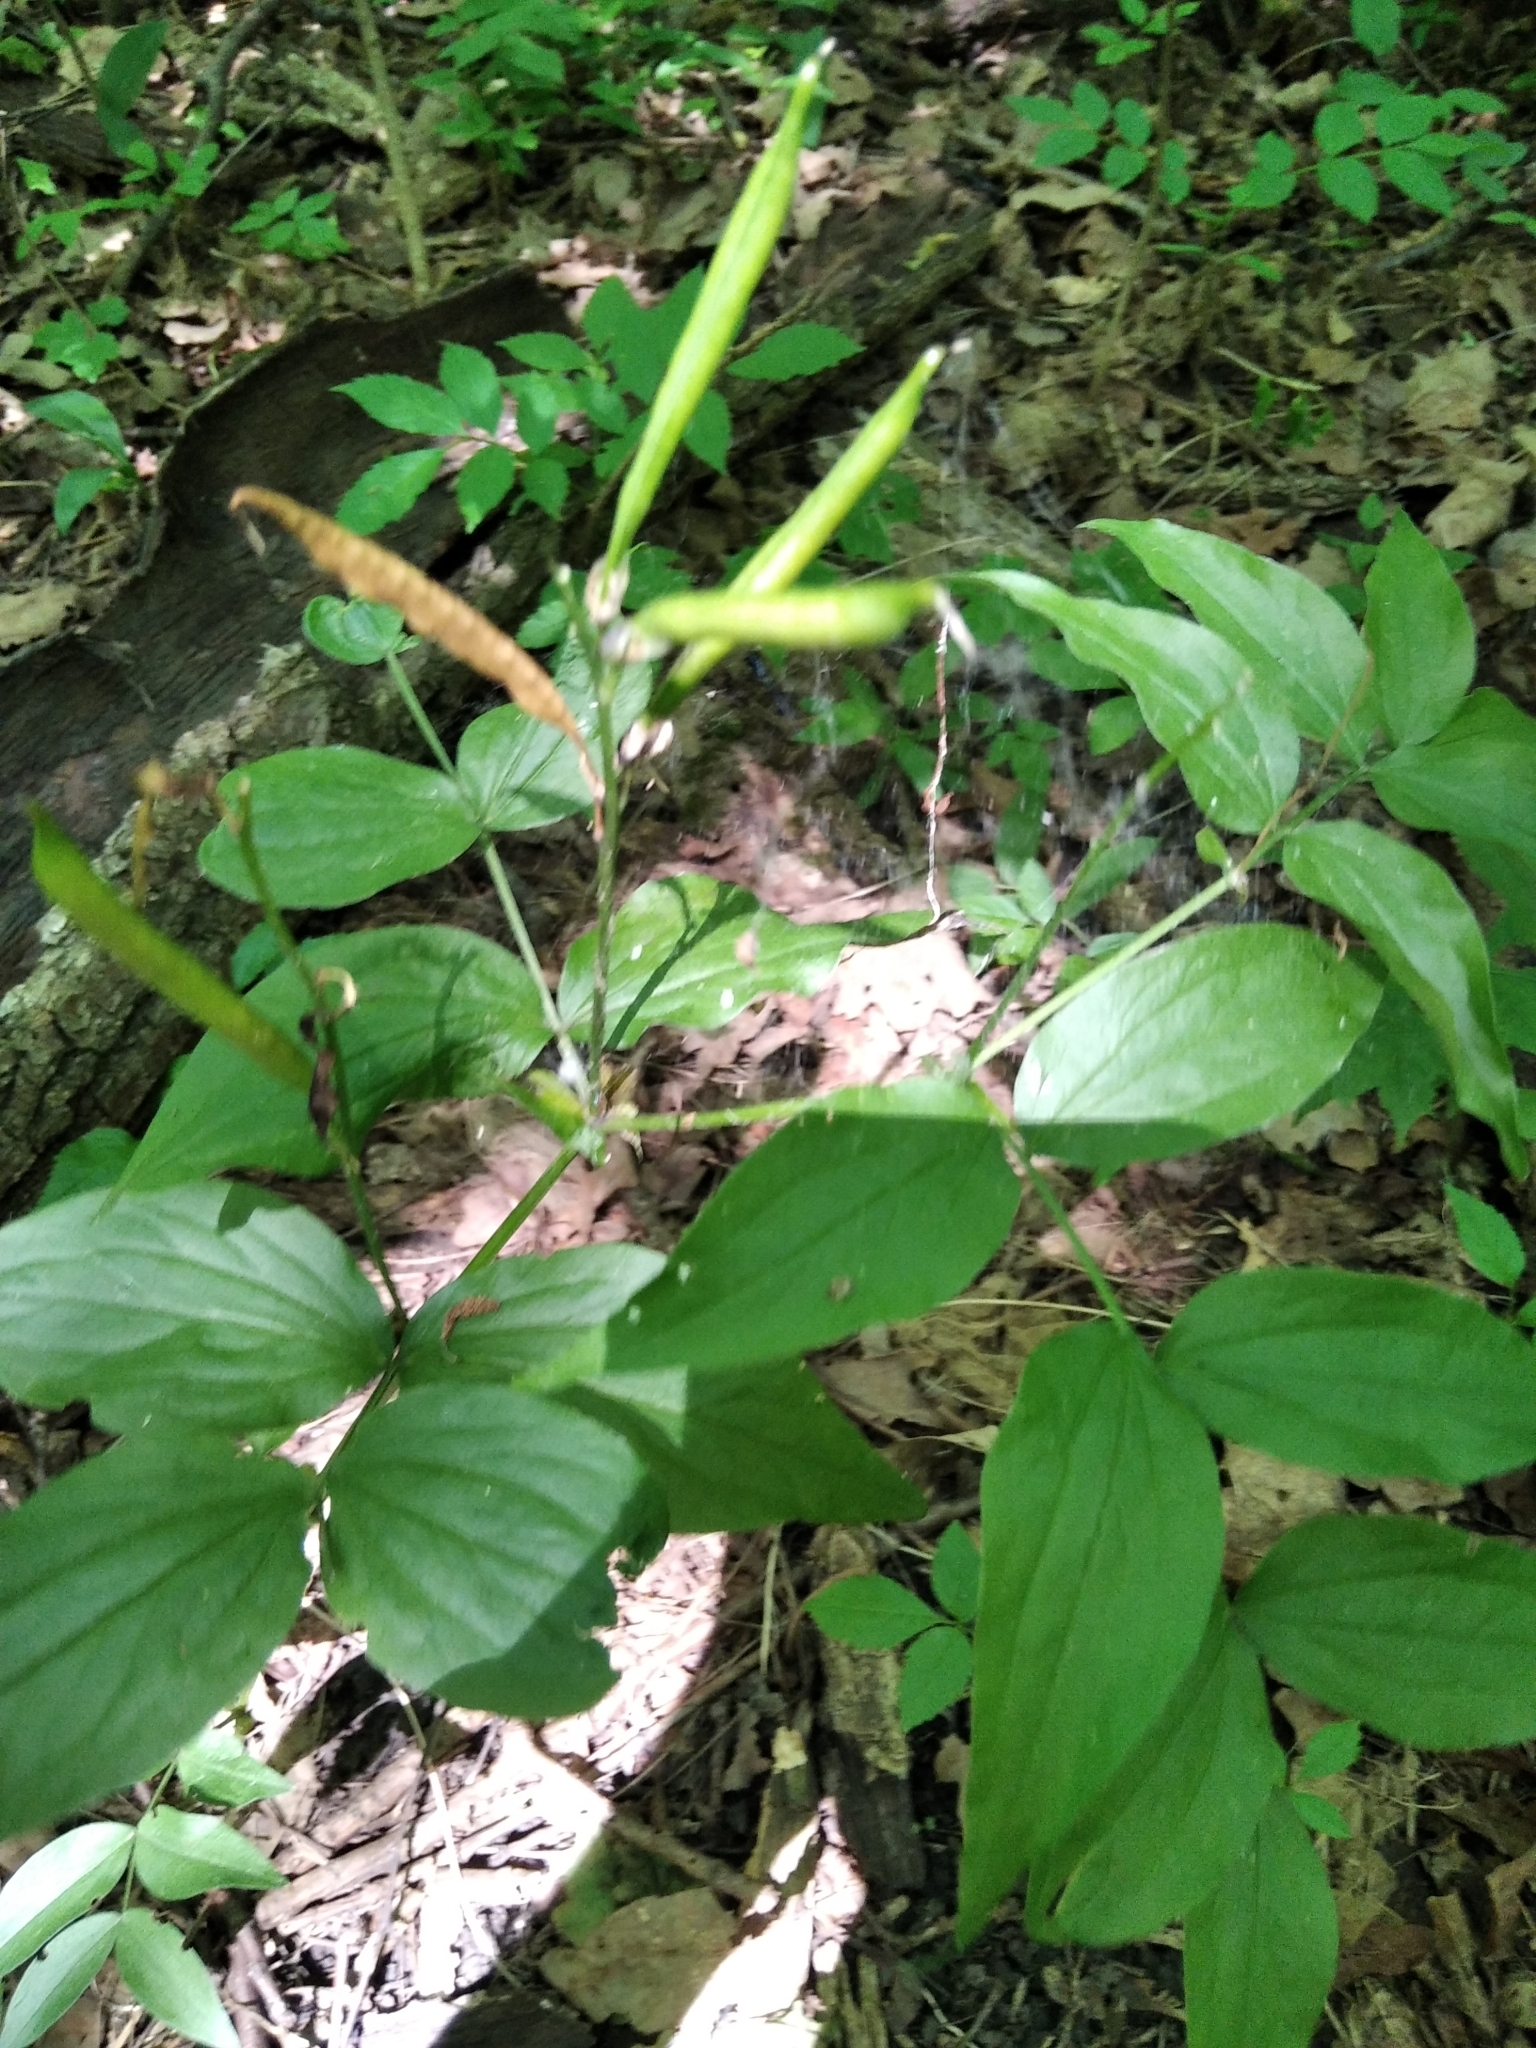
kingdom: Plantae
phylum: Tracheophyta
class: Magnoliopsida
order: Fabales
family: Fabaceae
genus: Lathyrus
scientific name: Lathyrus vernus
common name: Spring pea
